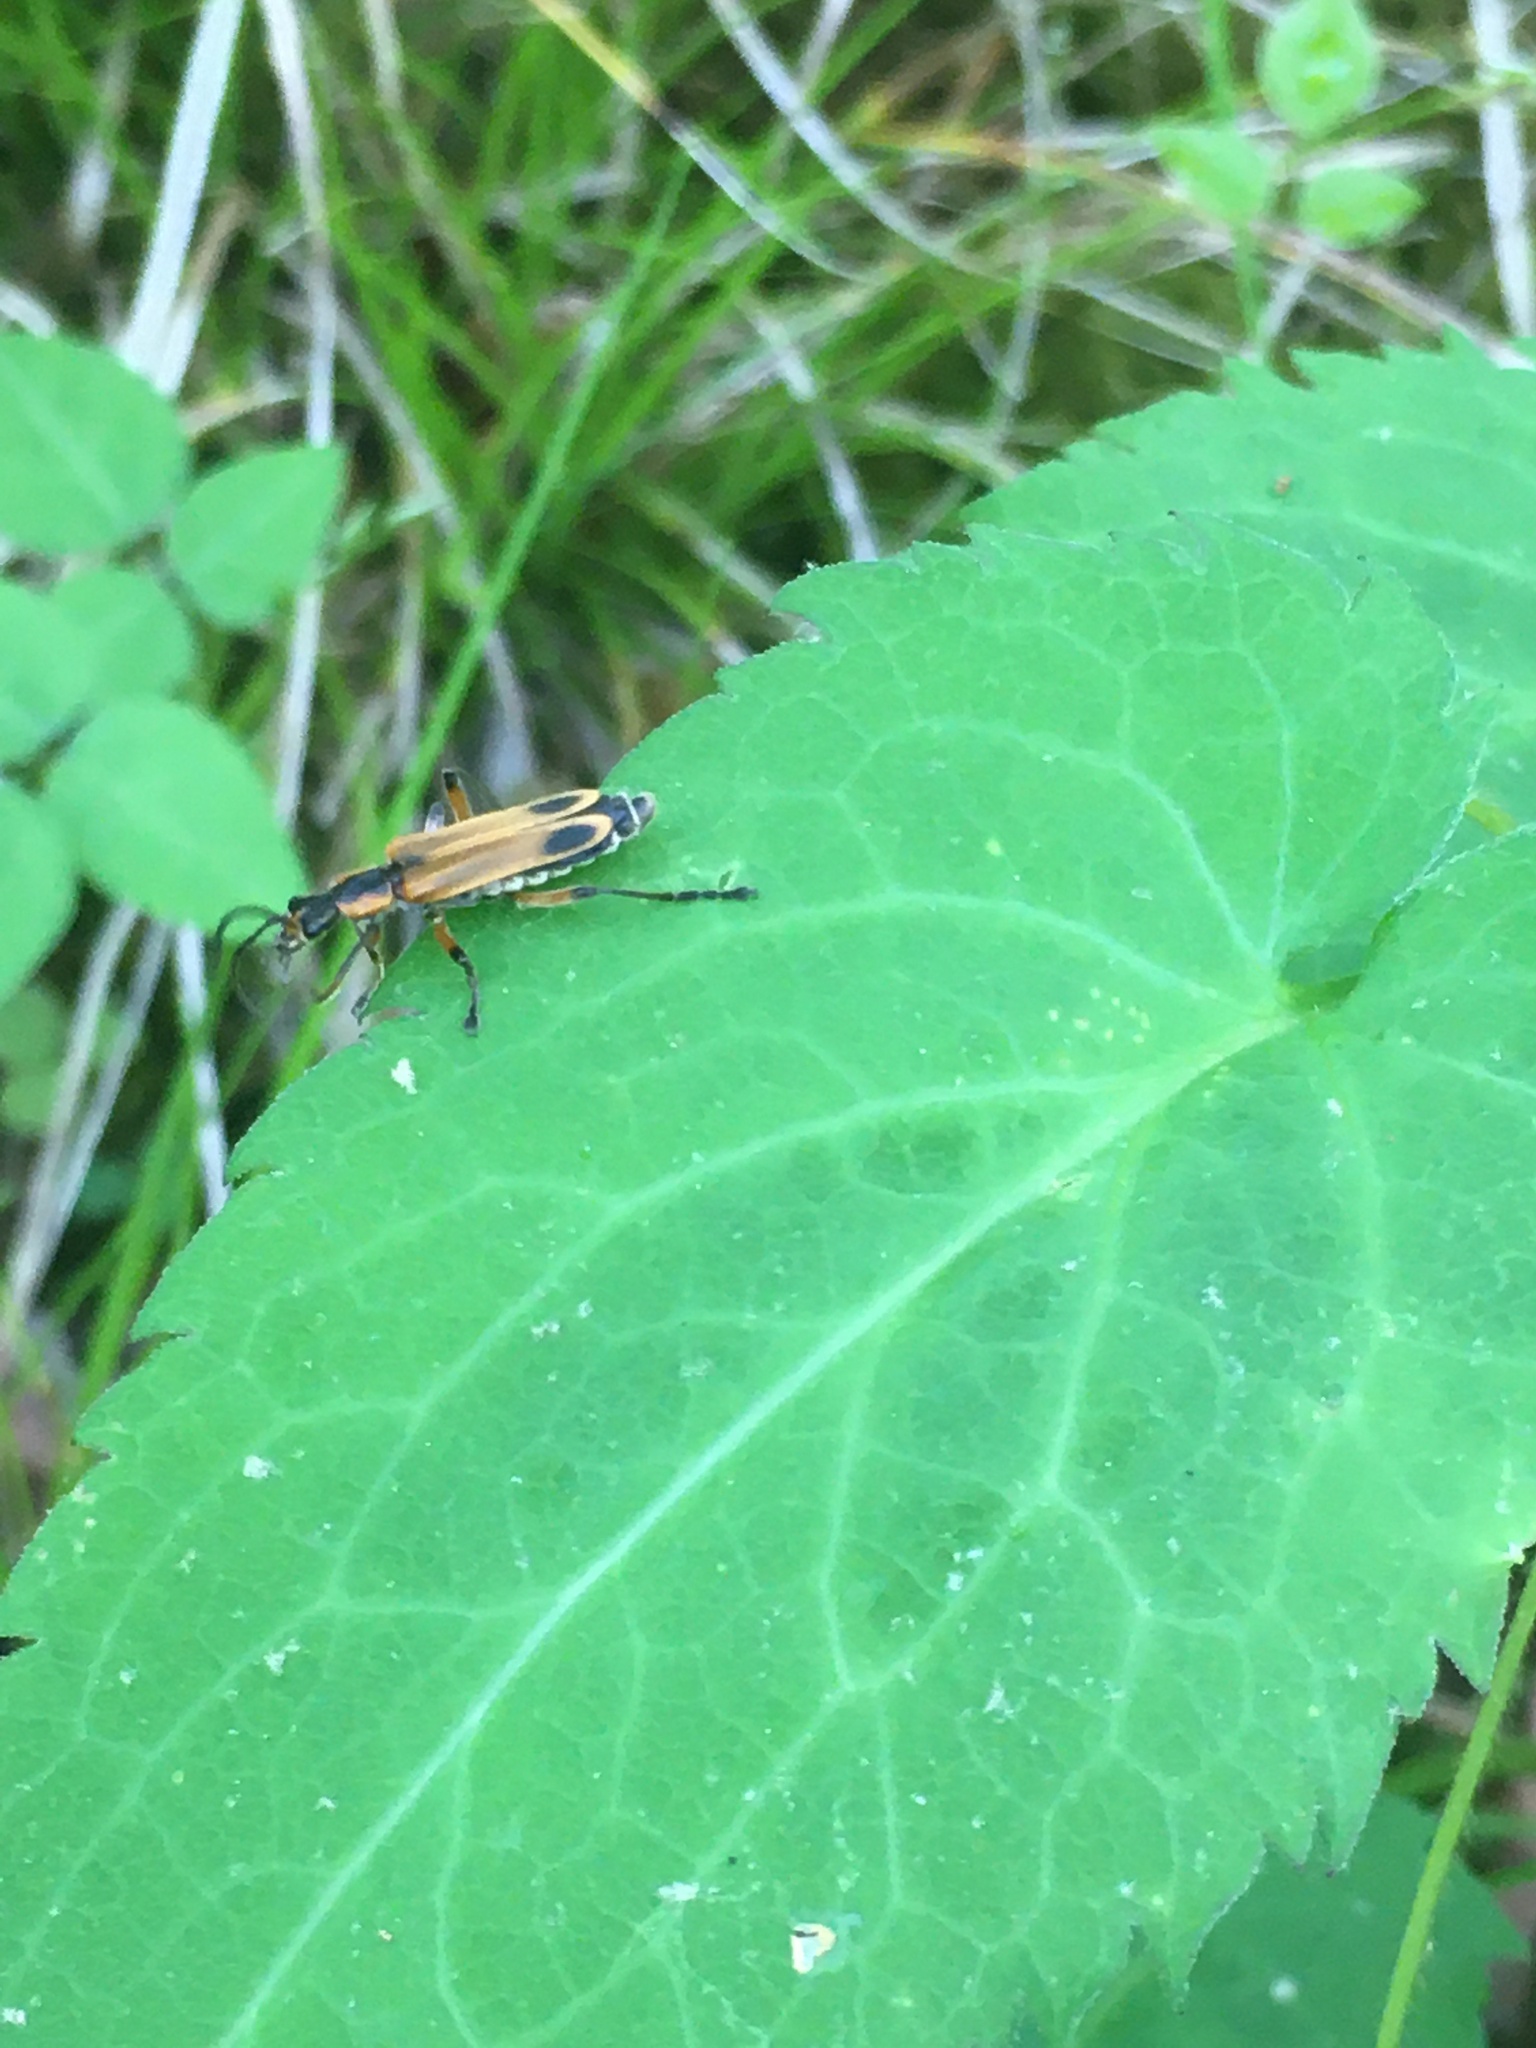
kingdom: Animalia
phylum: Arthropoda
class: Insecta
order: Coleoptera
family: Cantharidae
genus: Chauliognathus
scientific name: Chauliognathus marginatus
